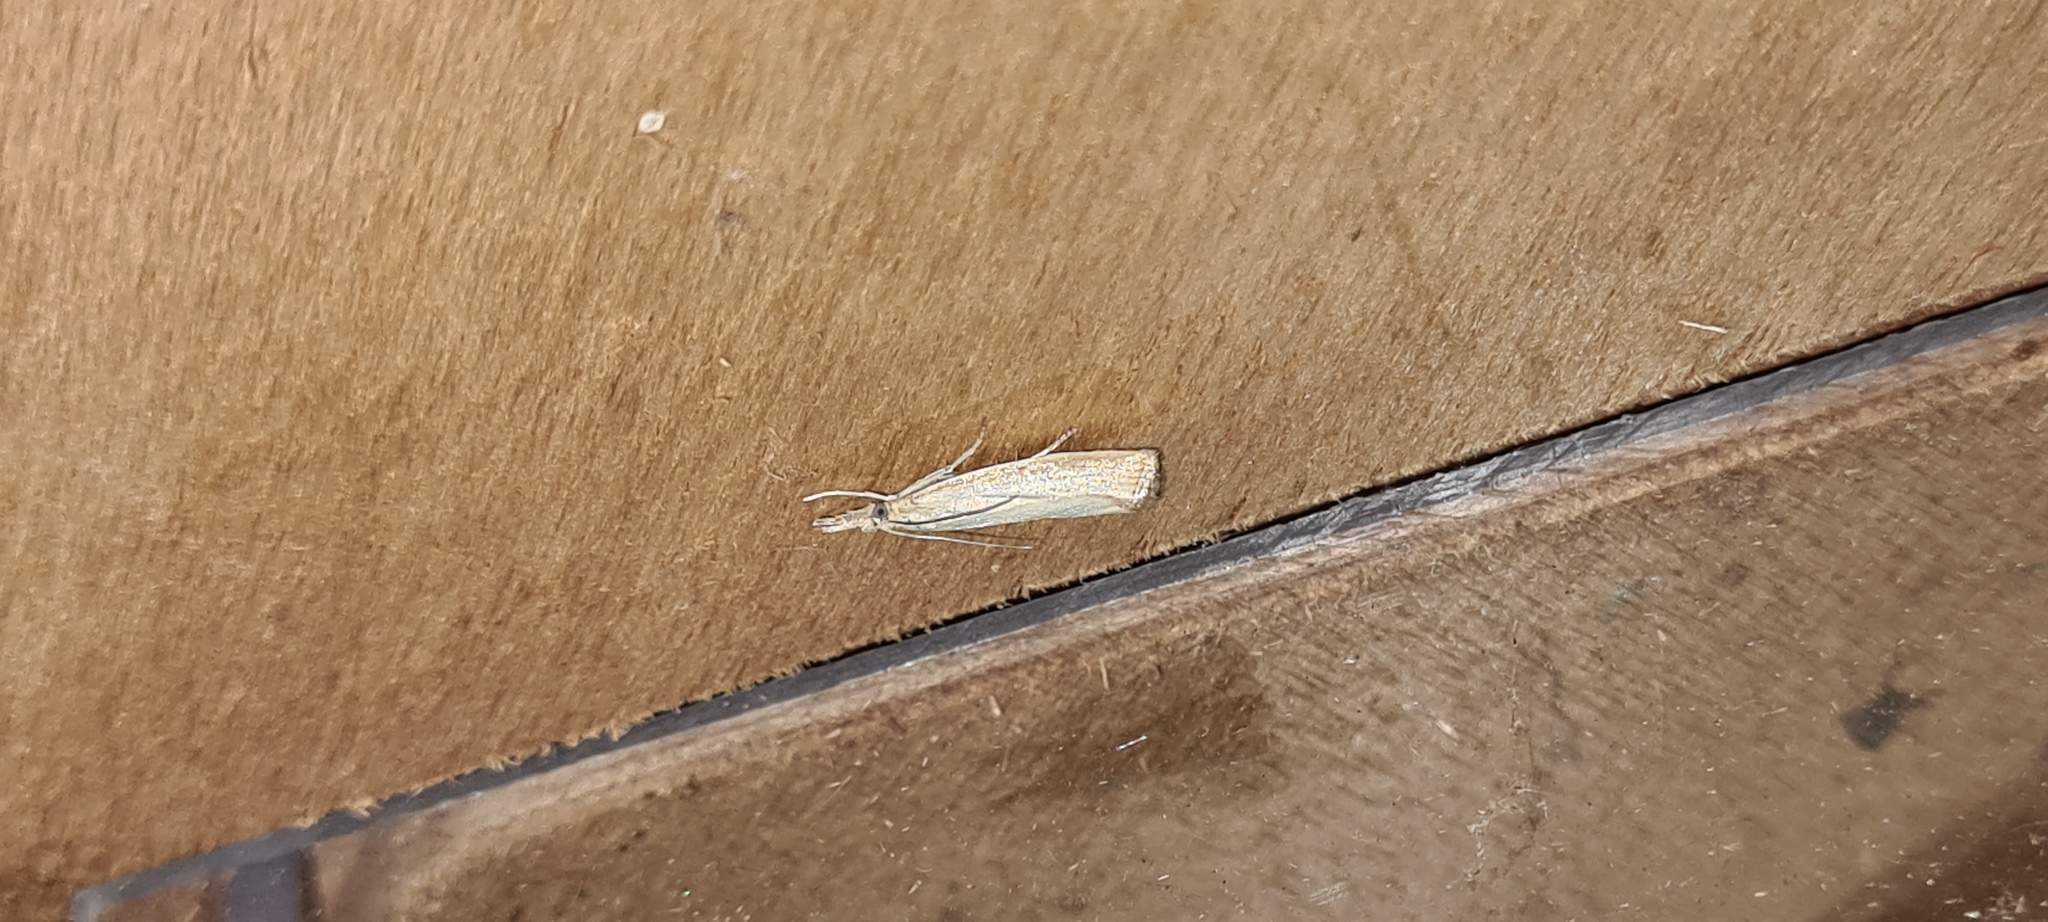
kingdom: Animalia
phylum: Arthropoda
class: Insecta
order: Lepidoptera
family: Crambidae
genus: Agriphila
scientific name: Agriphila straminella
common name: Straw grass-veneer
